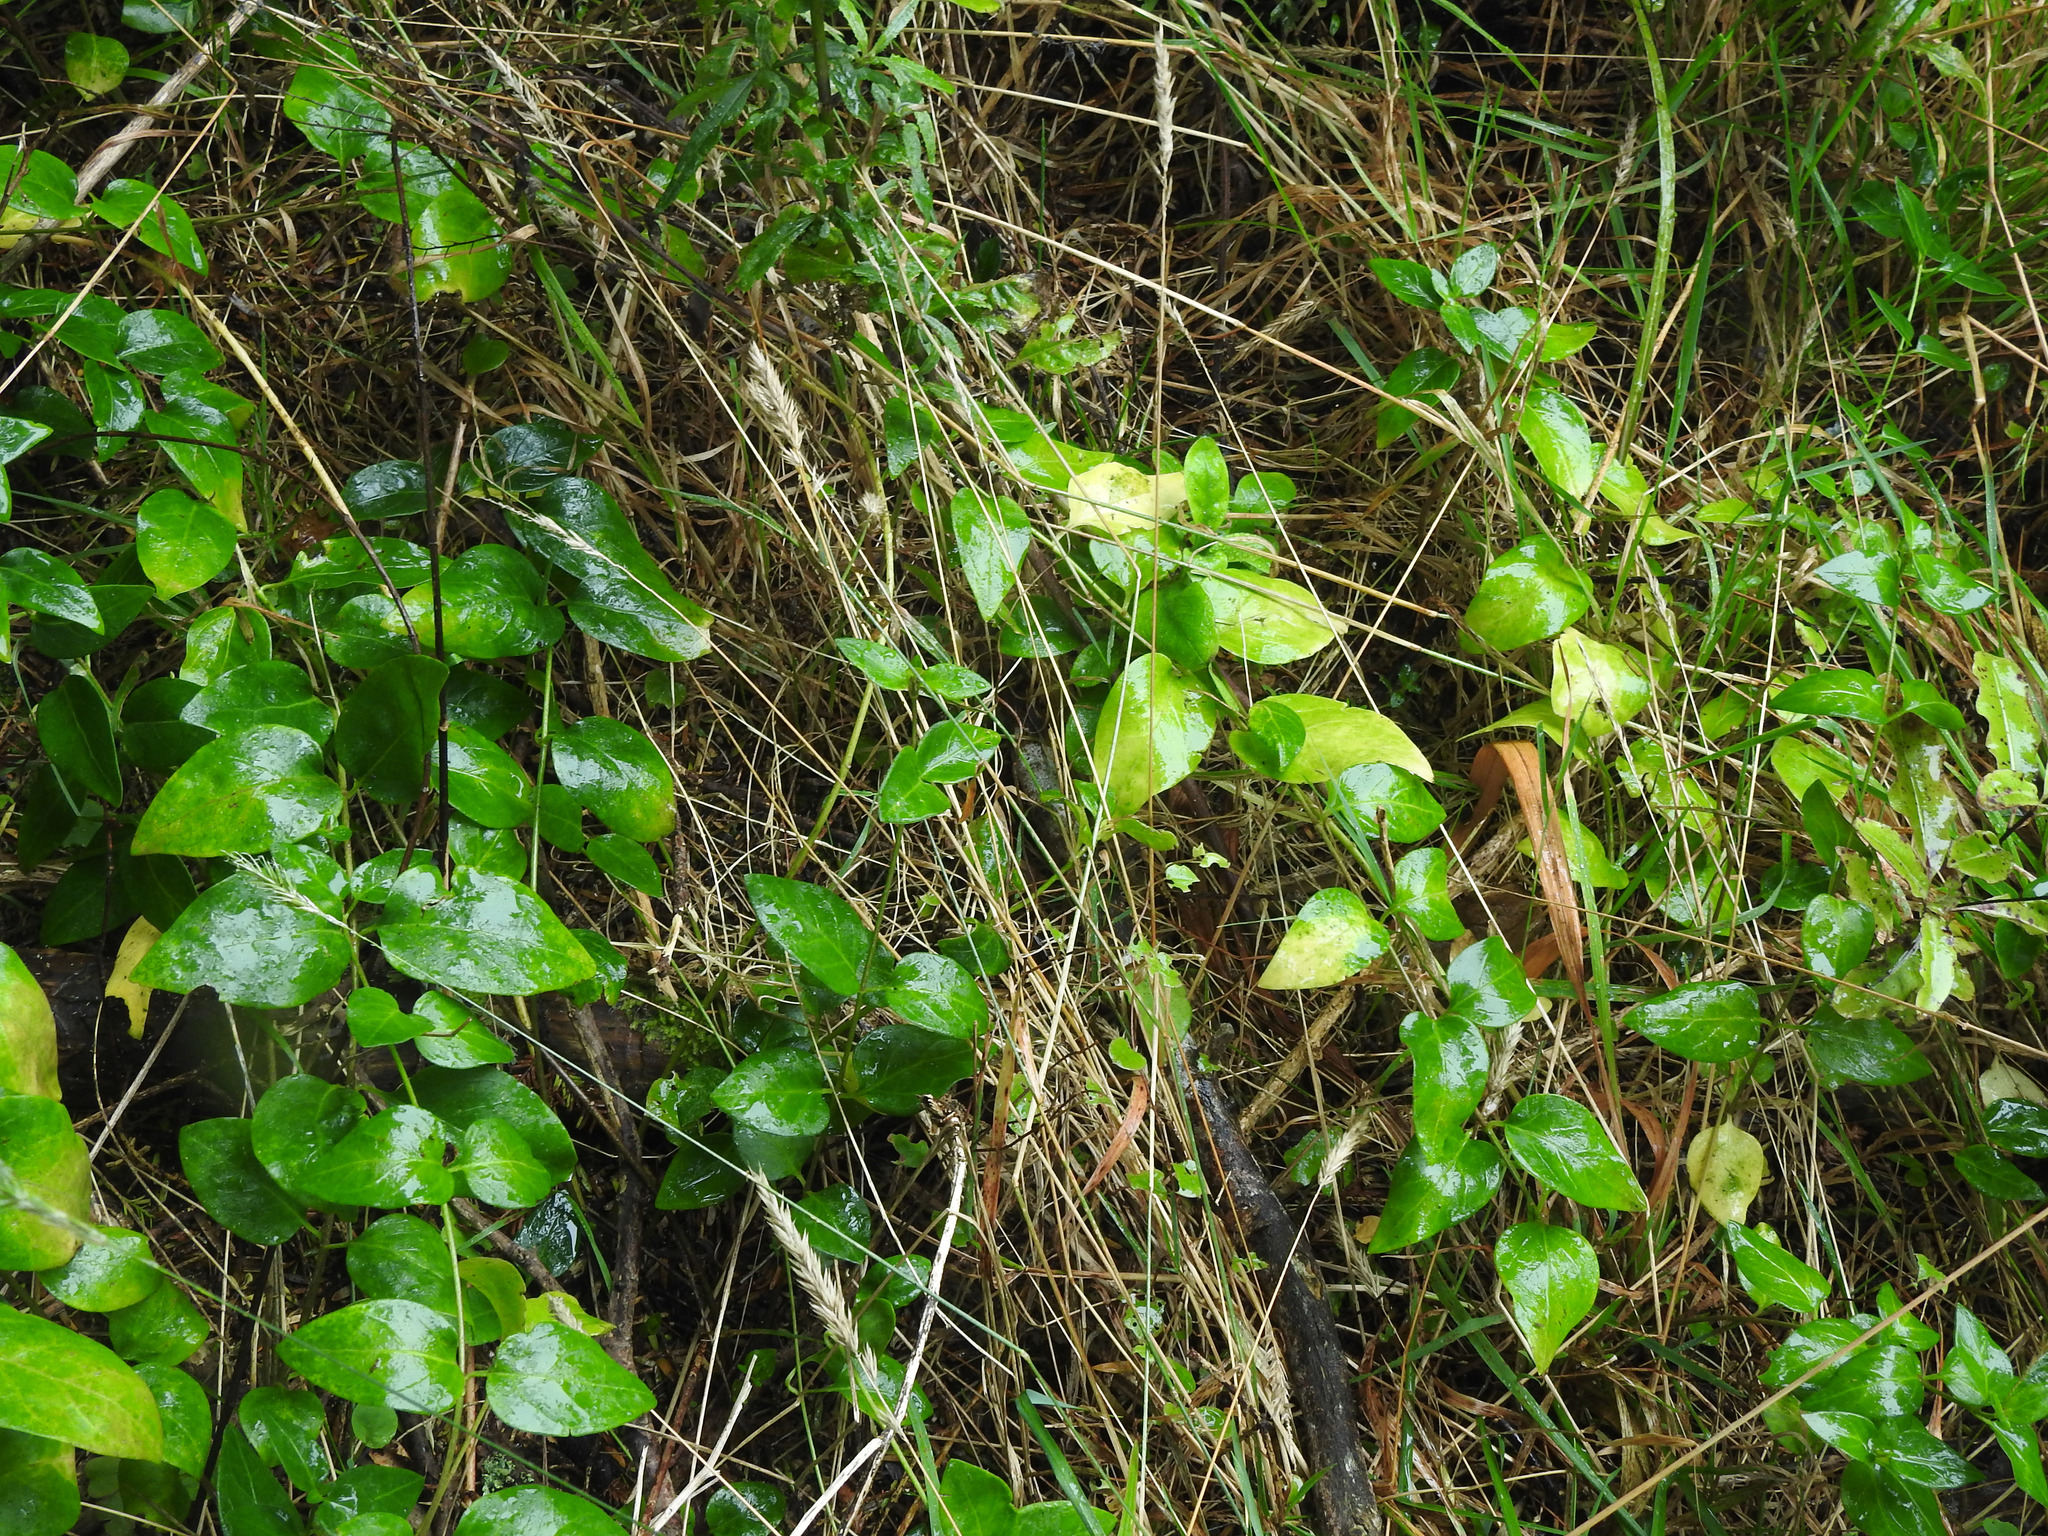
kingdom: Plantae
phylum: Tracheophyta
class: Magnoliopsida
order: Gentianales
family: Apocynaceae
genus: Vinca
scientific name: Vinca major
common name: Greater periwinkle
